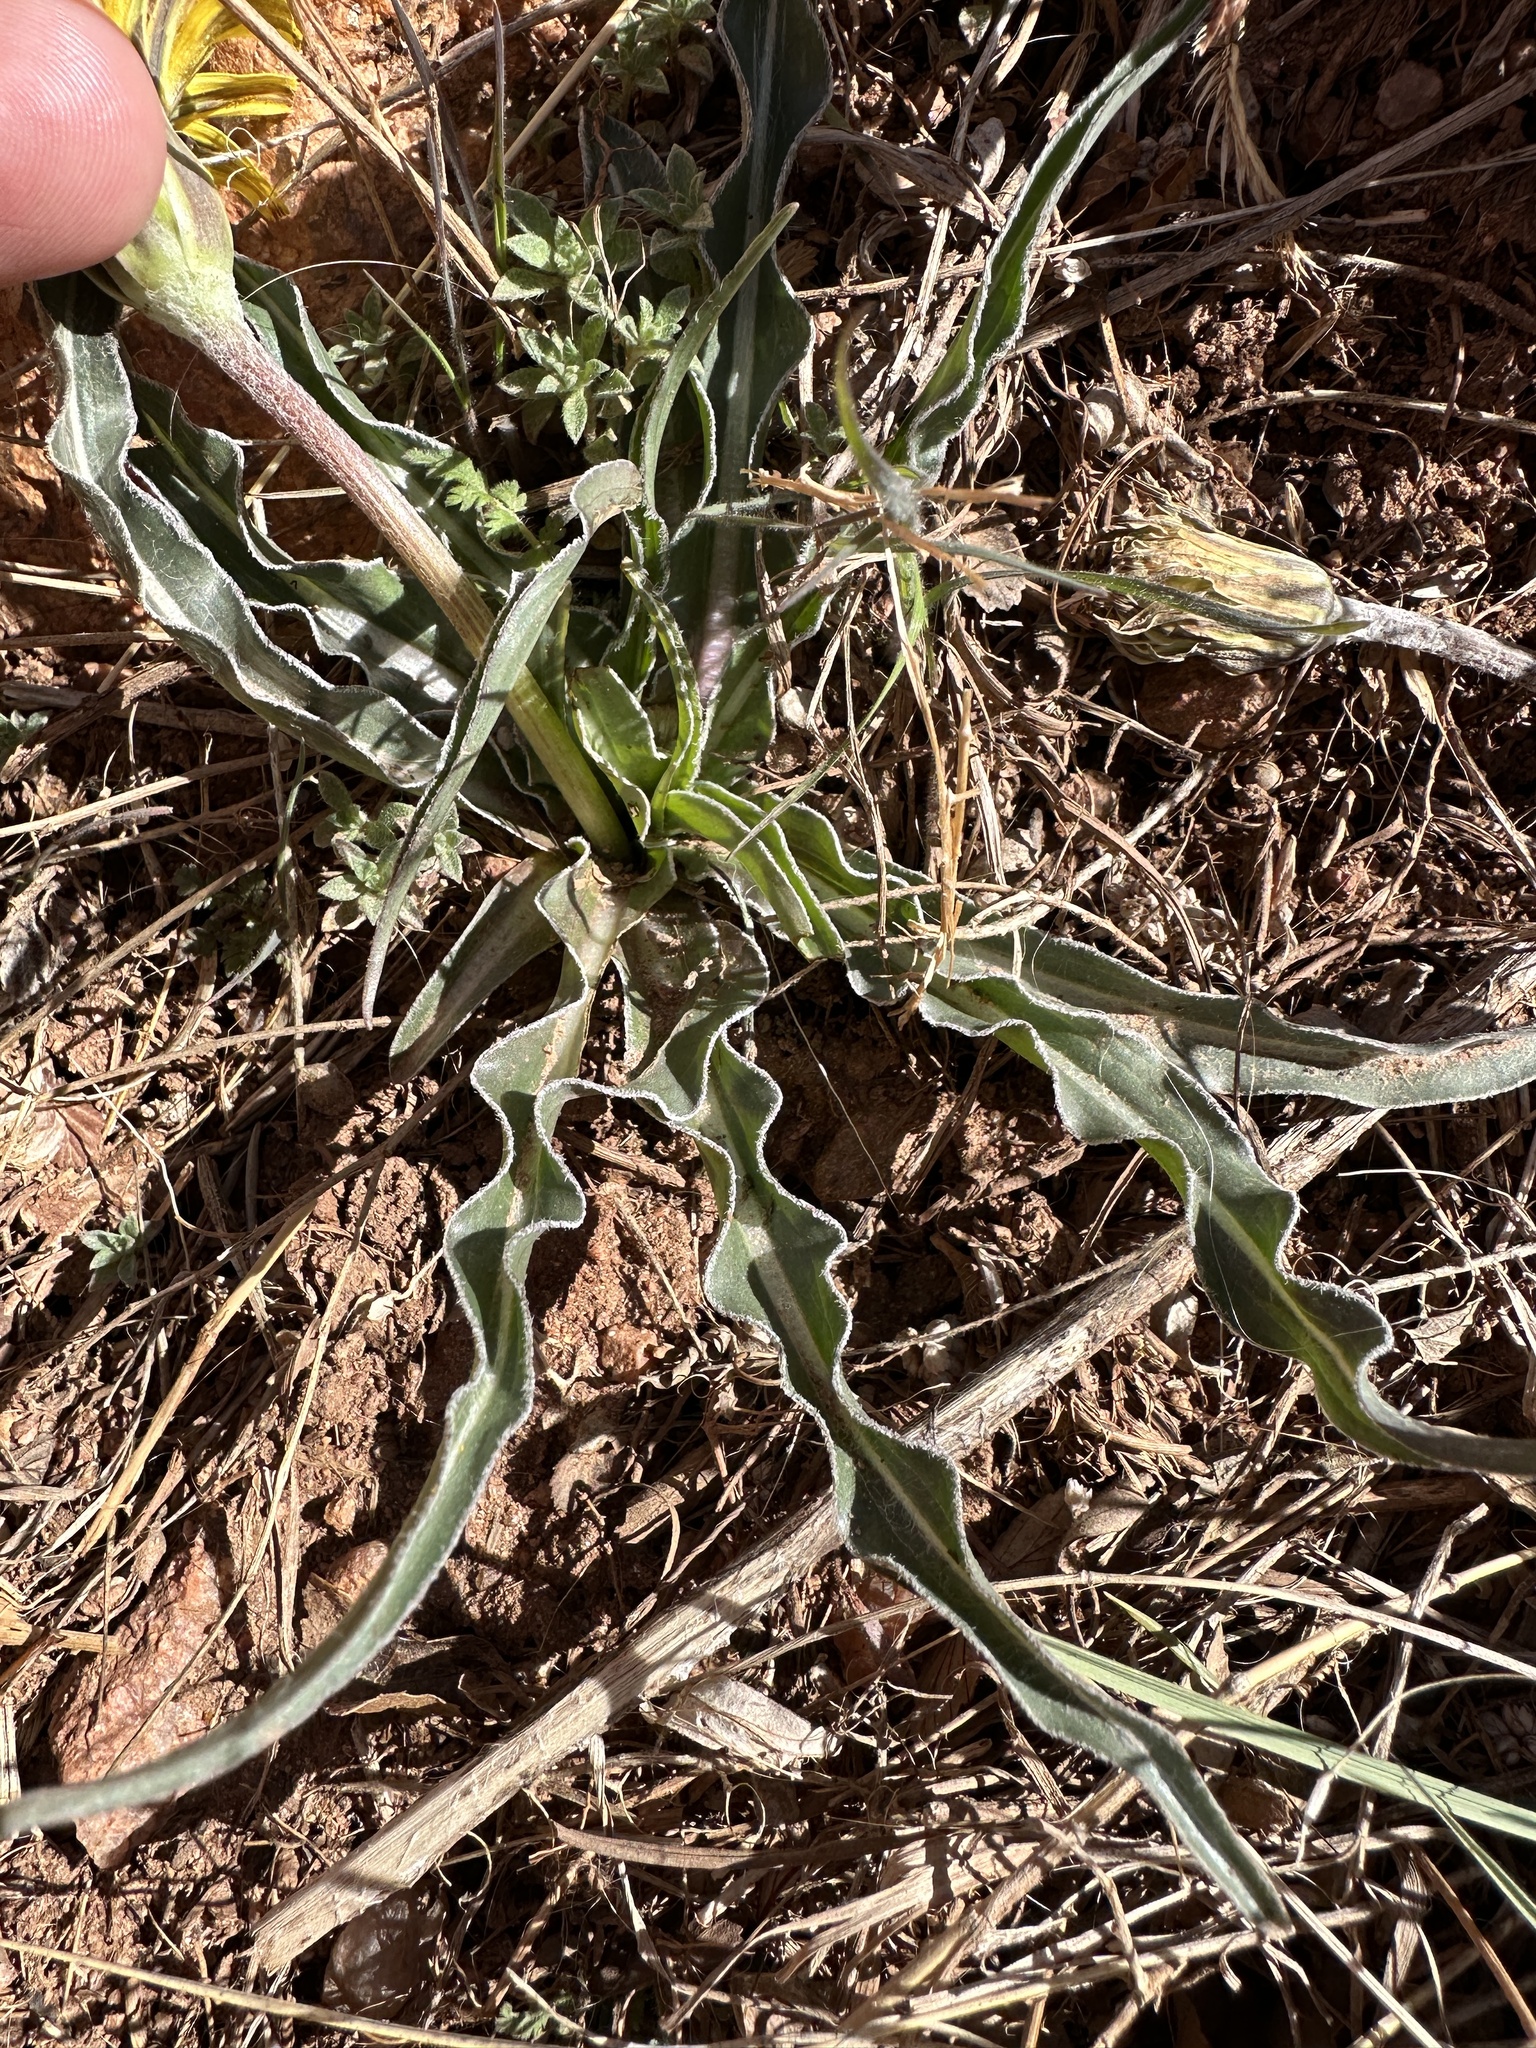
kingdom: Plantae
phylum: Tracheophyta
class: Magnoliopsida
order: Asterales
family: Asteraceae
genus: Microseris
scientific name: Microseris cuspidata
